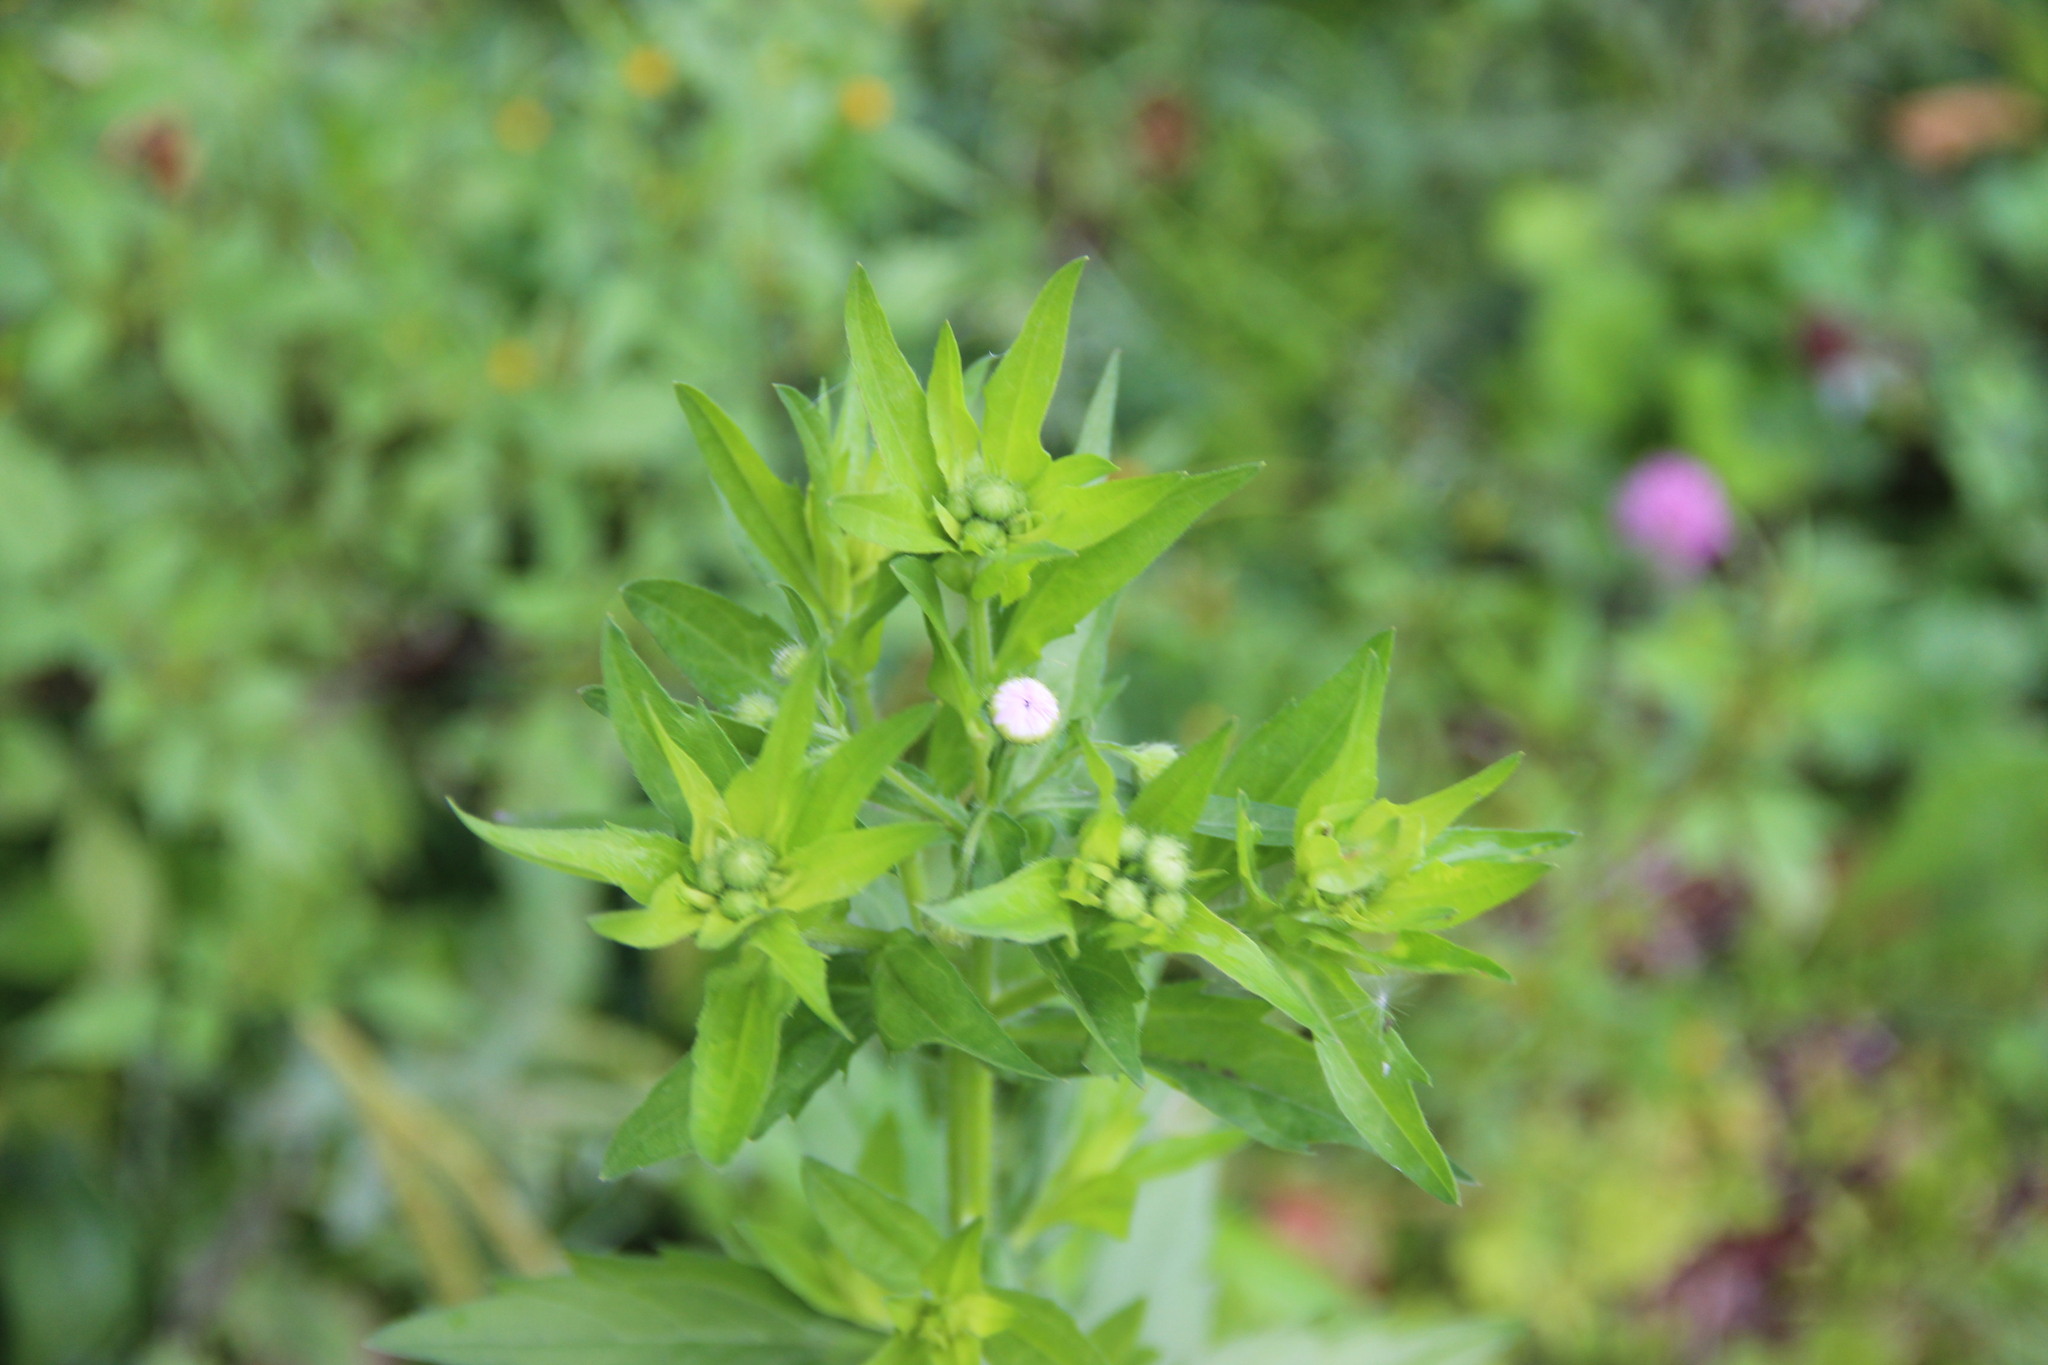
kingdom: Plantae
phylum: Tracheophyta
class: Magnoliopsida
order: Asterales
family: Asteraceae
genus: Erigeron
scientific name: Erigeron annuus
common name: Tall fleabane
